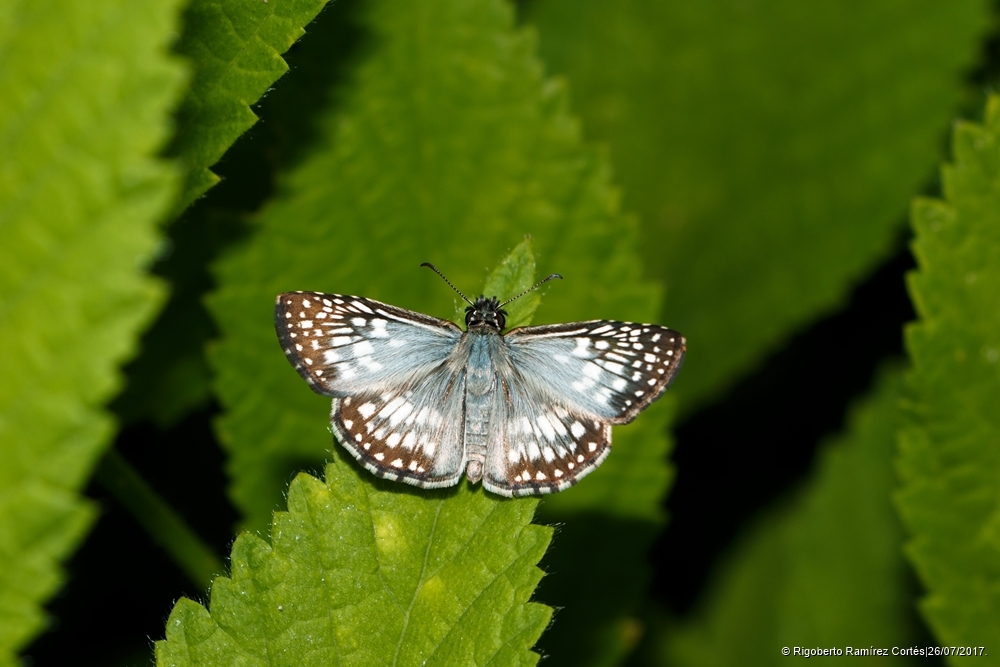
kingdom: Animalia
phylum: Arthropoda
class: Insecta
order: Lepidoptera
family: Hesperiidae
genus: Pyrgus
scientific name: Pyrgus oileus
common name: Tropical checkered-skipper
